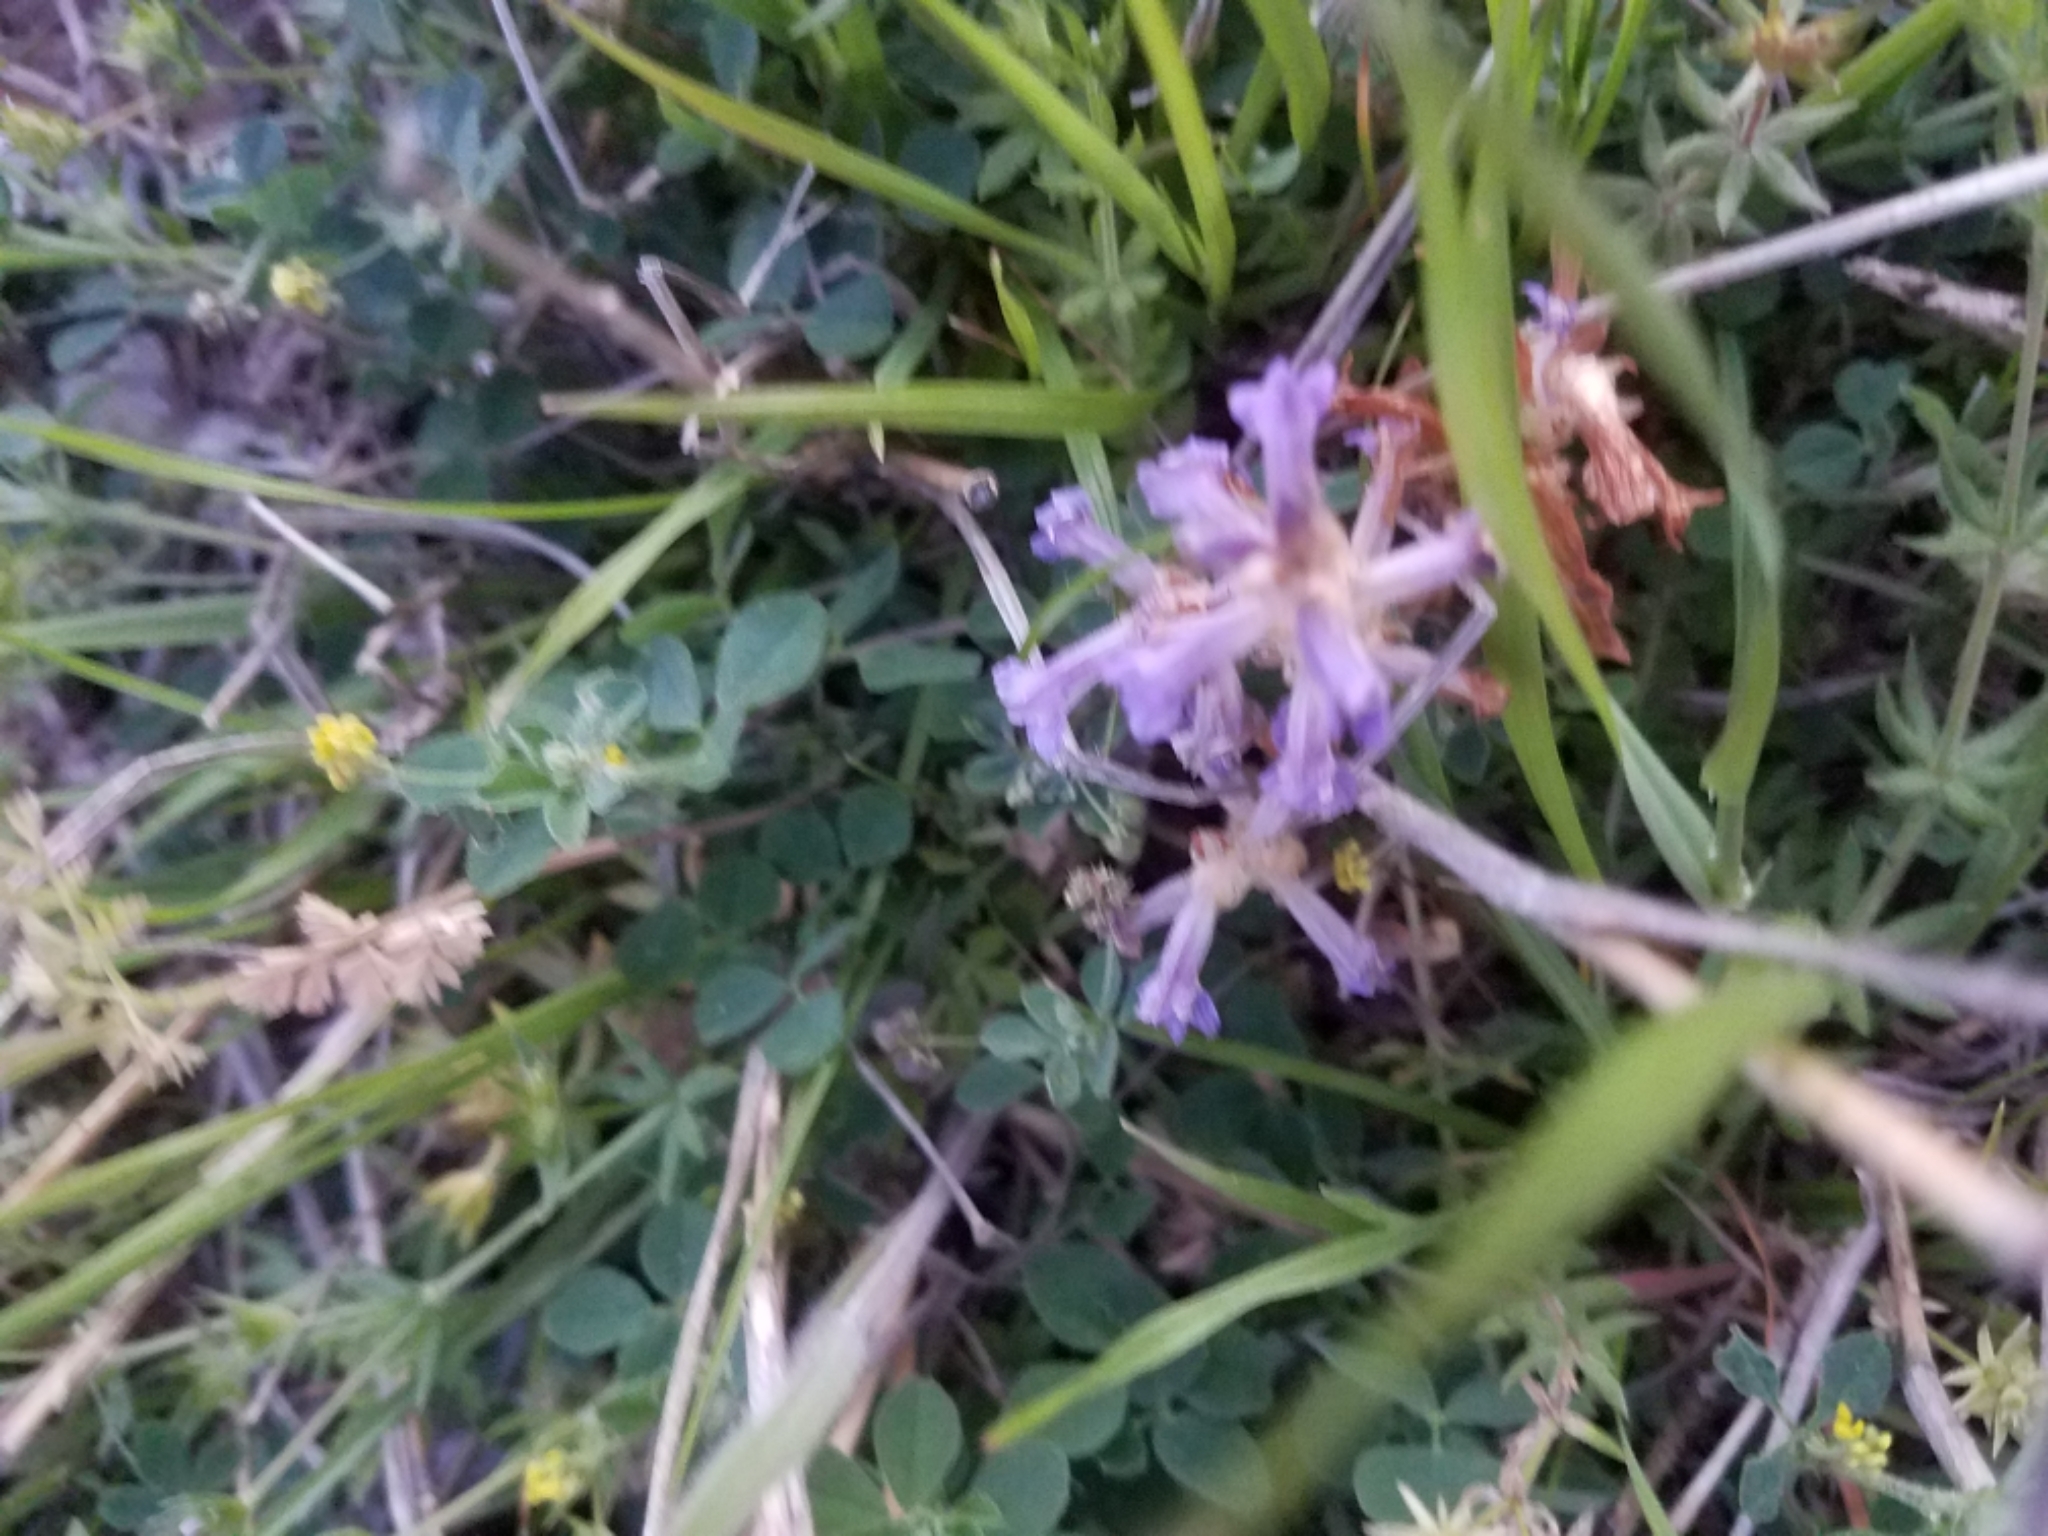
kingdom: Plantae
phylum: Tracheophyta
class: Magnoliopsida
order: Lamiales
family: Orobanchaceae
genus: Phelipanche
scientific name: Phelipanche ramosa
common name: Branched broomrape
